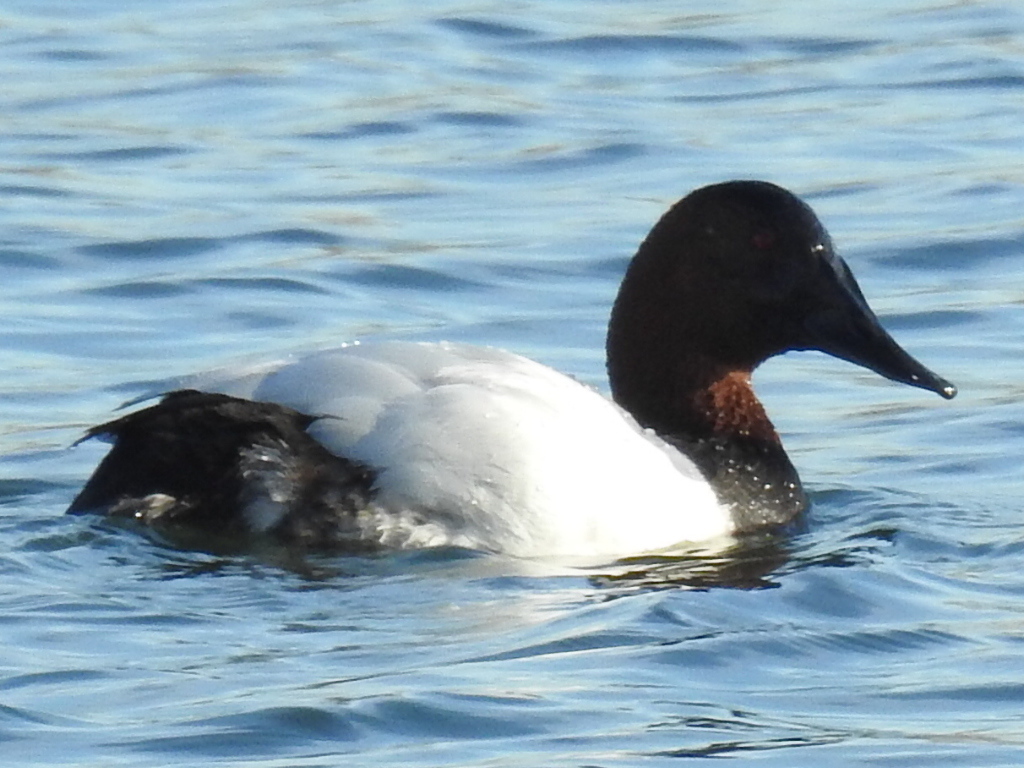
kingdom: Animalia
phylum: Chordata
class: Aves
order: Anseriformes
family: Anatidae
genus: Aythya
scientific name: Aythya valisineria
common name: Canvasback
